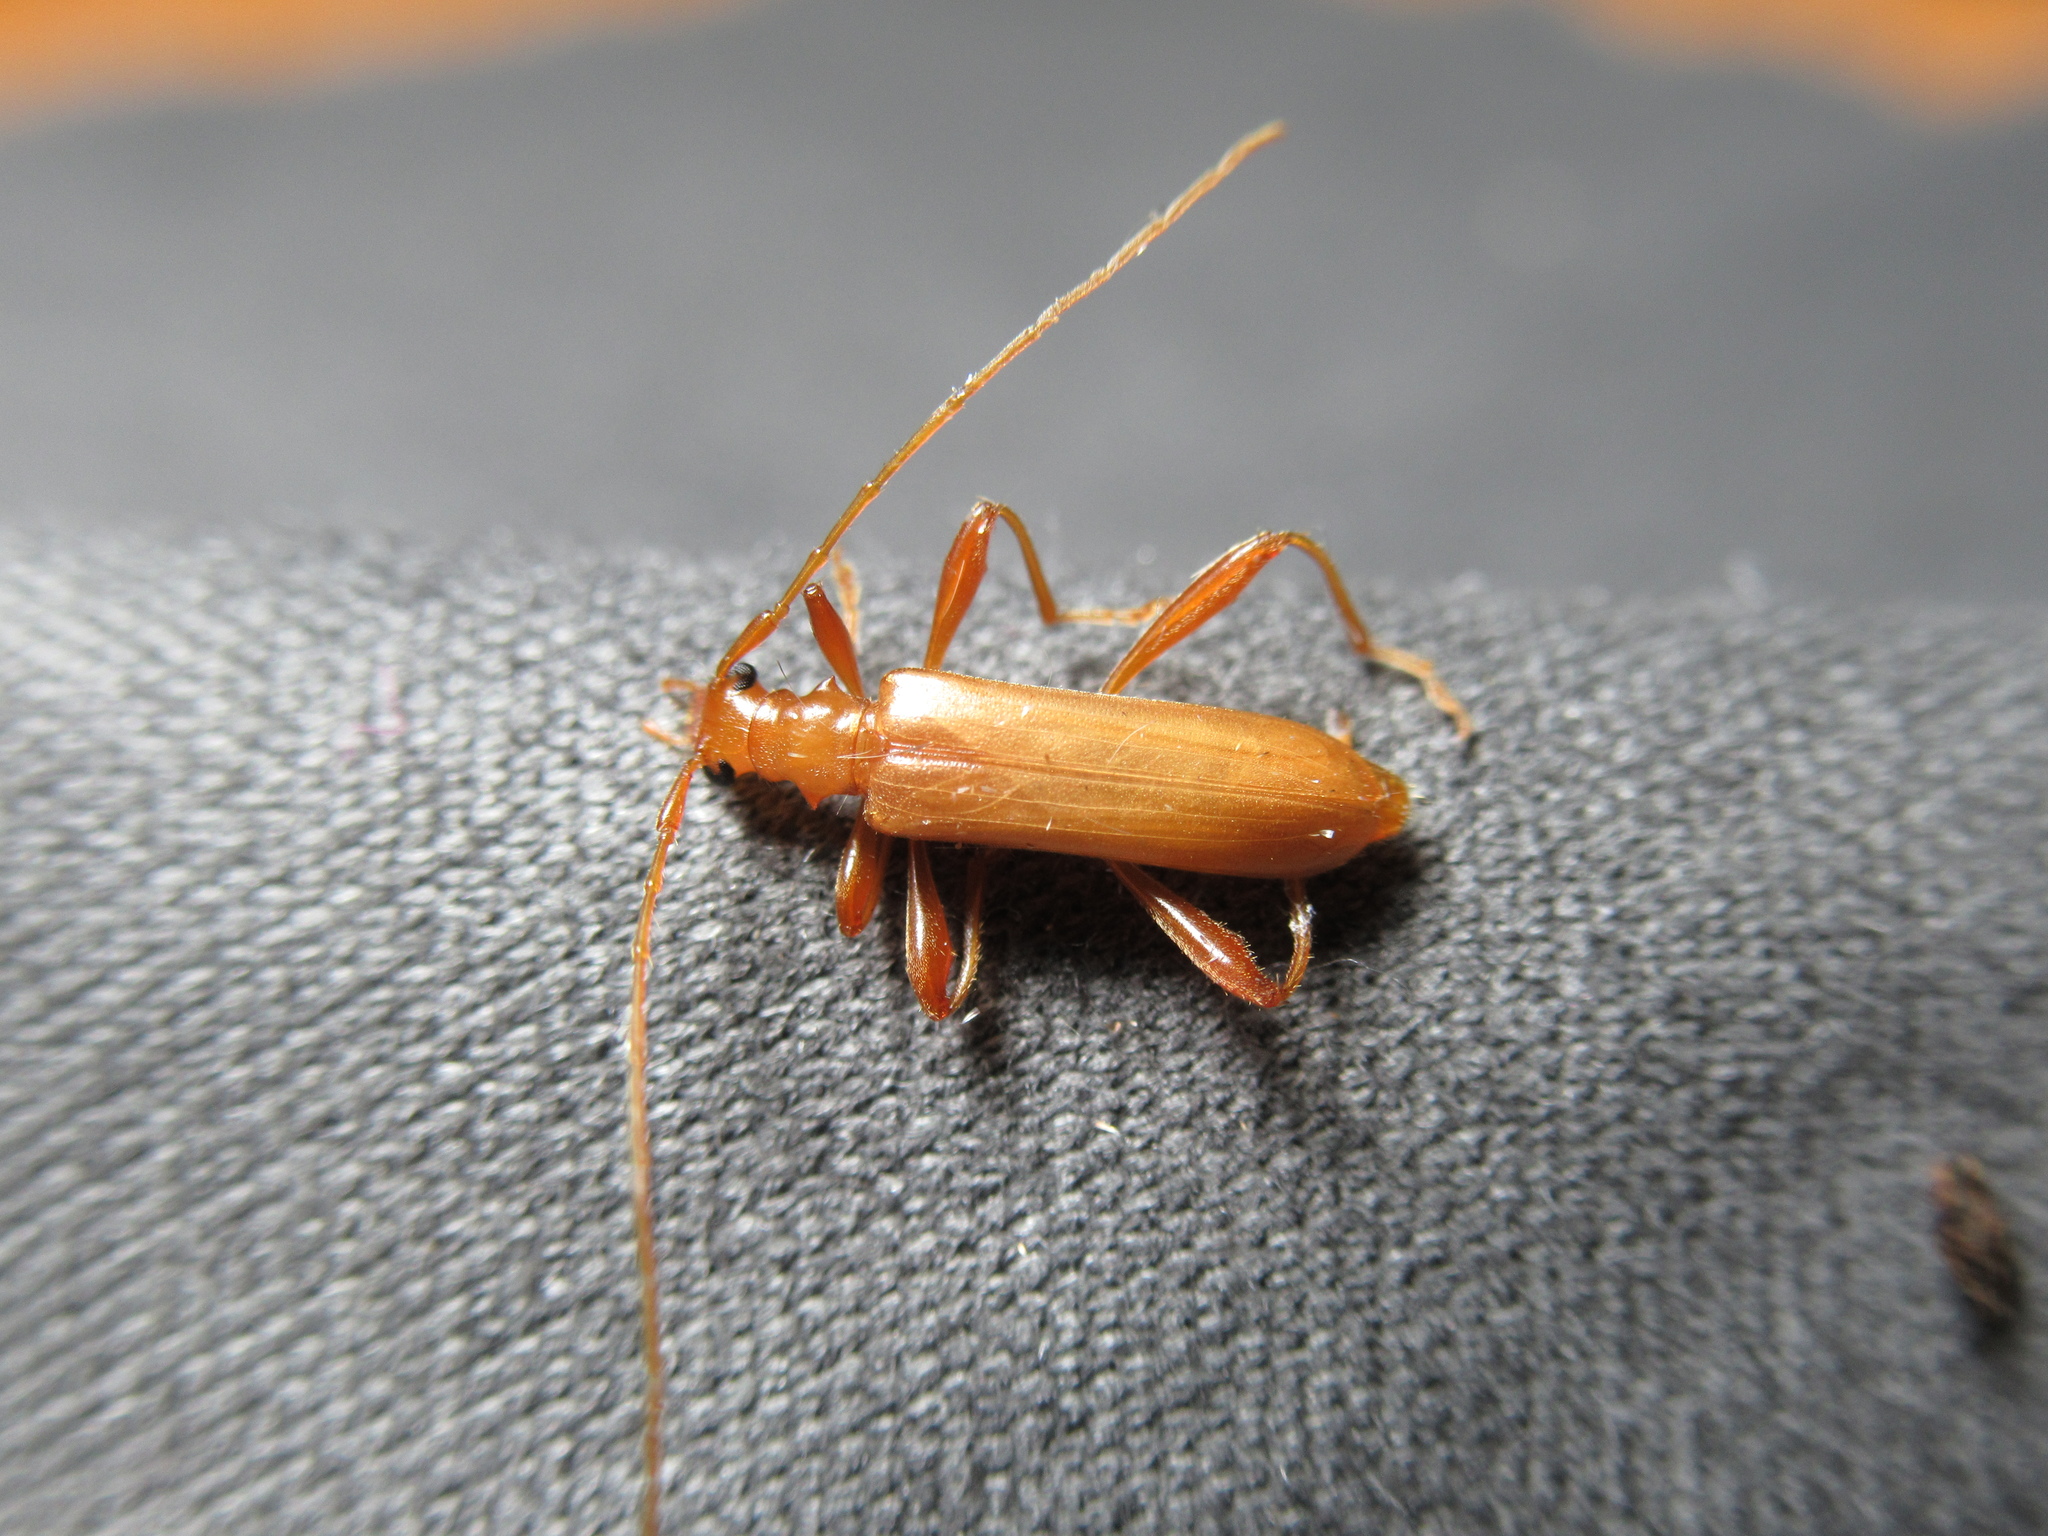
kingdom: Animalia
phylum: Arthropoda
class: Insecta
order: Coleoptera
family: Cerambycidae
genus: Votum
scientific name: Votum munda
